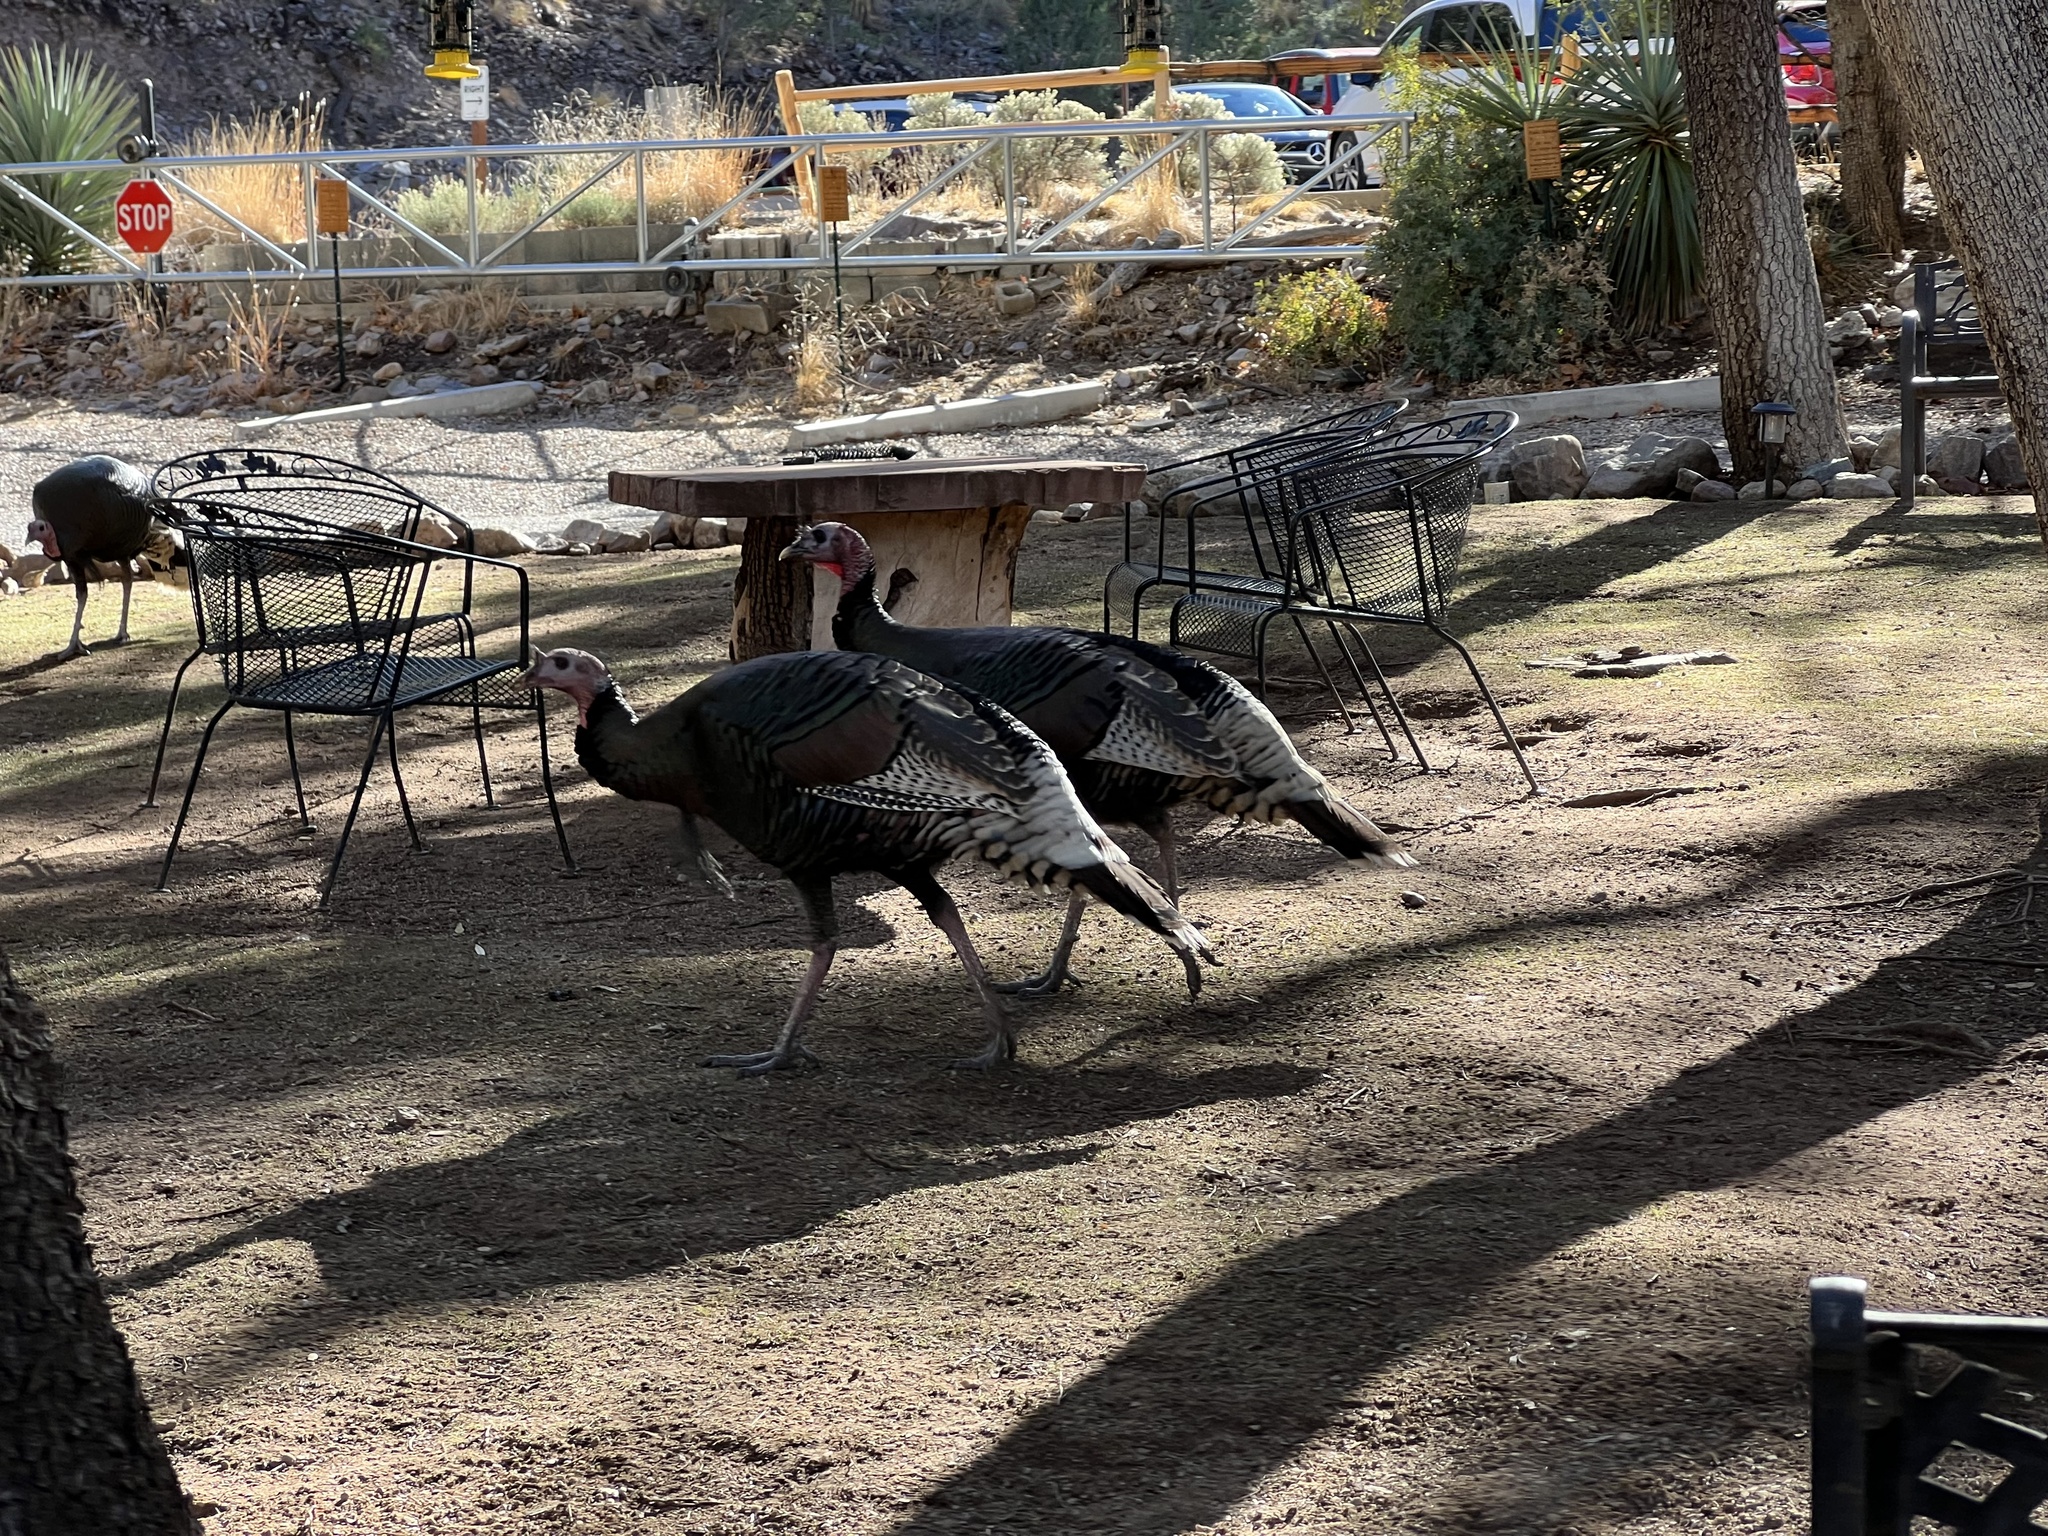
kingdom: Animalia
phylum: Chordata
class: Aves
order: Galliformes
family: Phasianidae
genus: Meleagris
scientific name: Meleagris gallopavo
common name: Wild turkey
